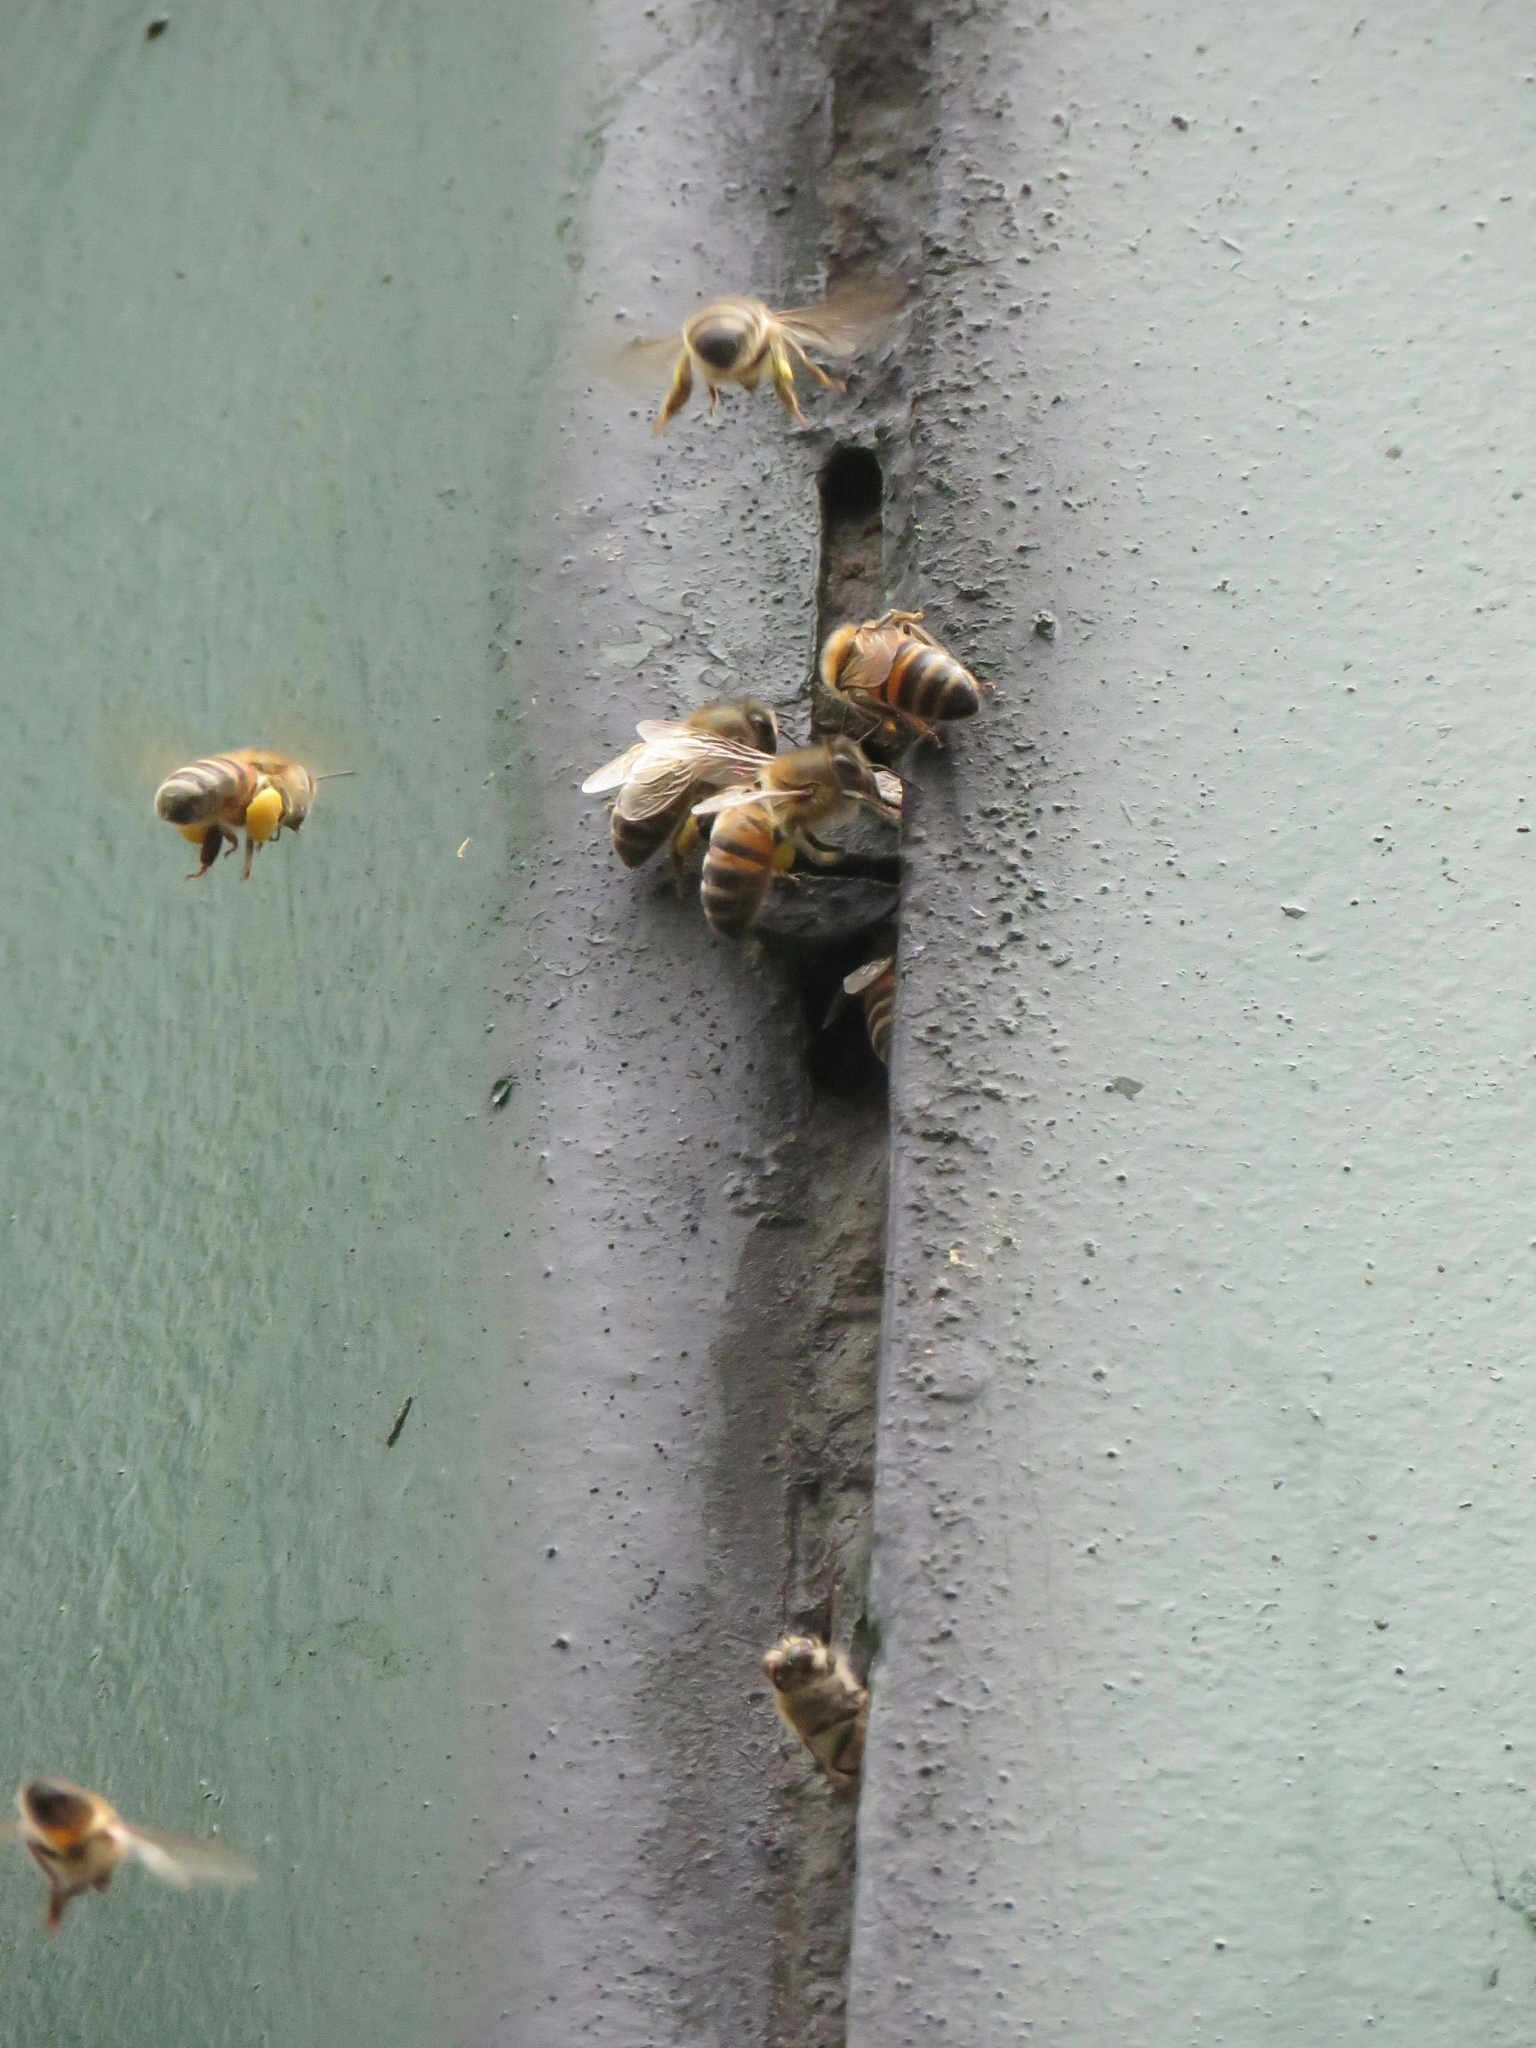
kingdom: Animalia
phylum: Arthropoda
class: Insecta
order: Hymenoptera
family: Apidae
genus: Apis
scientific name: Apis mellifera
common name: Honey bee
